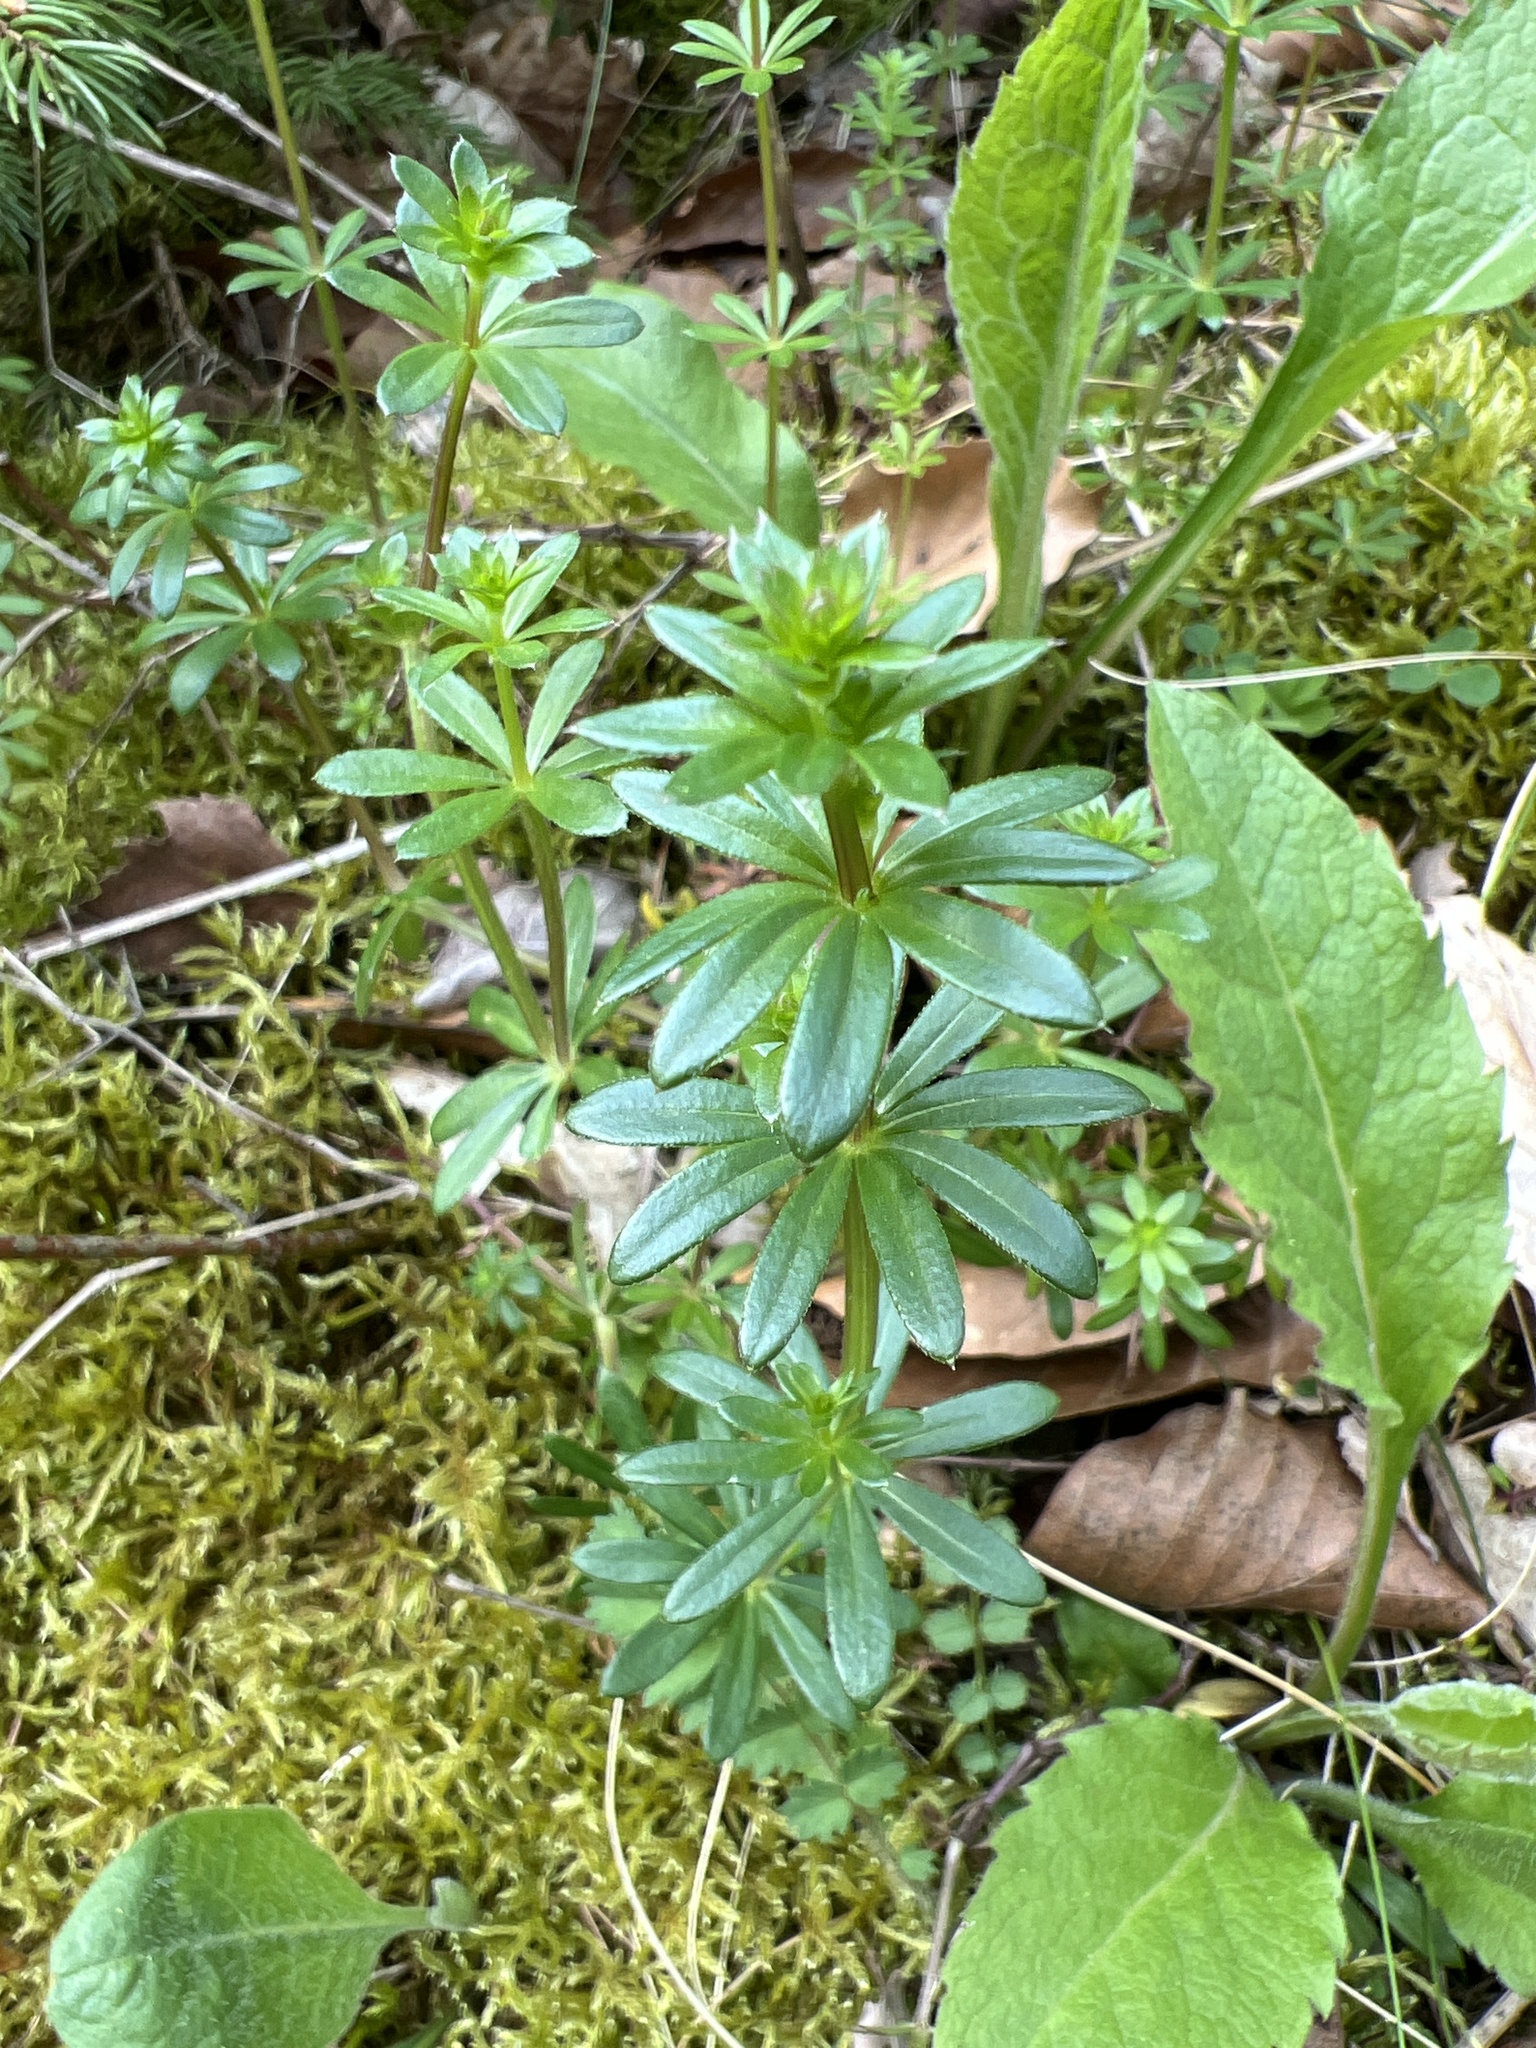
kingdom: Plantae
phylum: Tracheophyta
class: Magnoliopsida
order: Gentianales
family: Rubiaceae
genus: Galium
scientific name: Galium mollugo
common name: Hedge bedstraw
